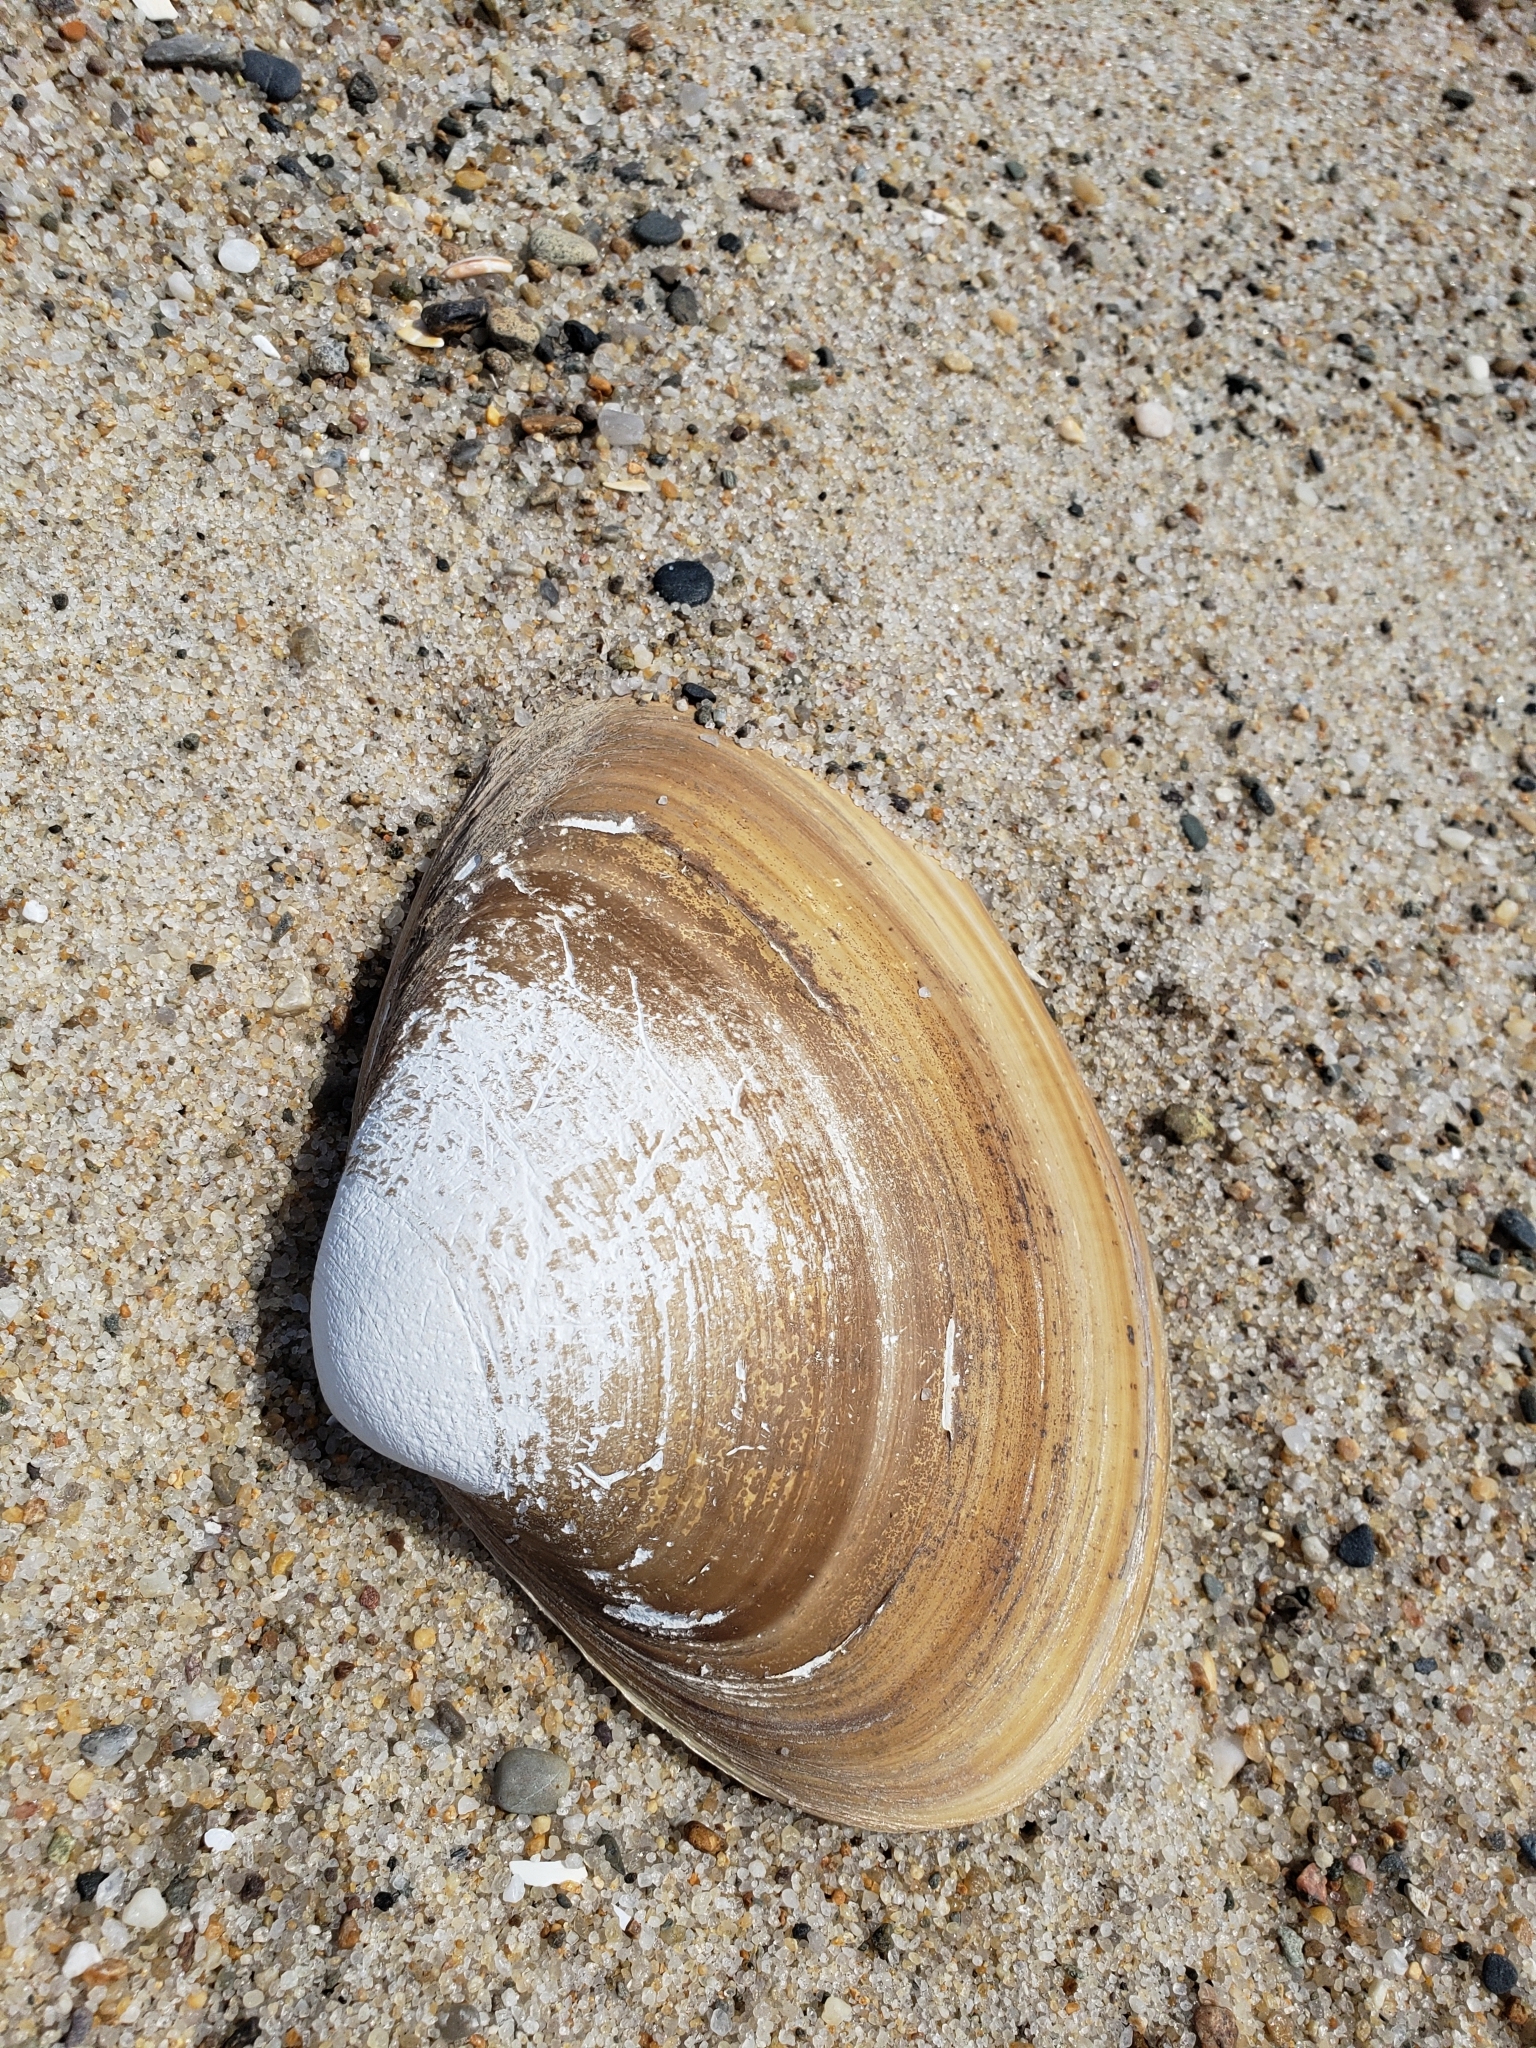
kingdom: Animalia
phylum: Mollusca
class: Bivalvia
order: Venerida
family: Mactridae
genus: Spisula
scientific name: Spisula solidissima
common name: Atlantic surf clam
